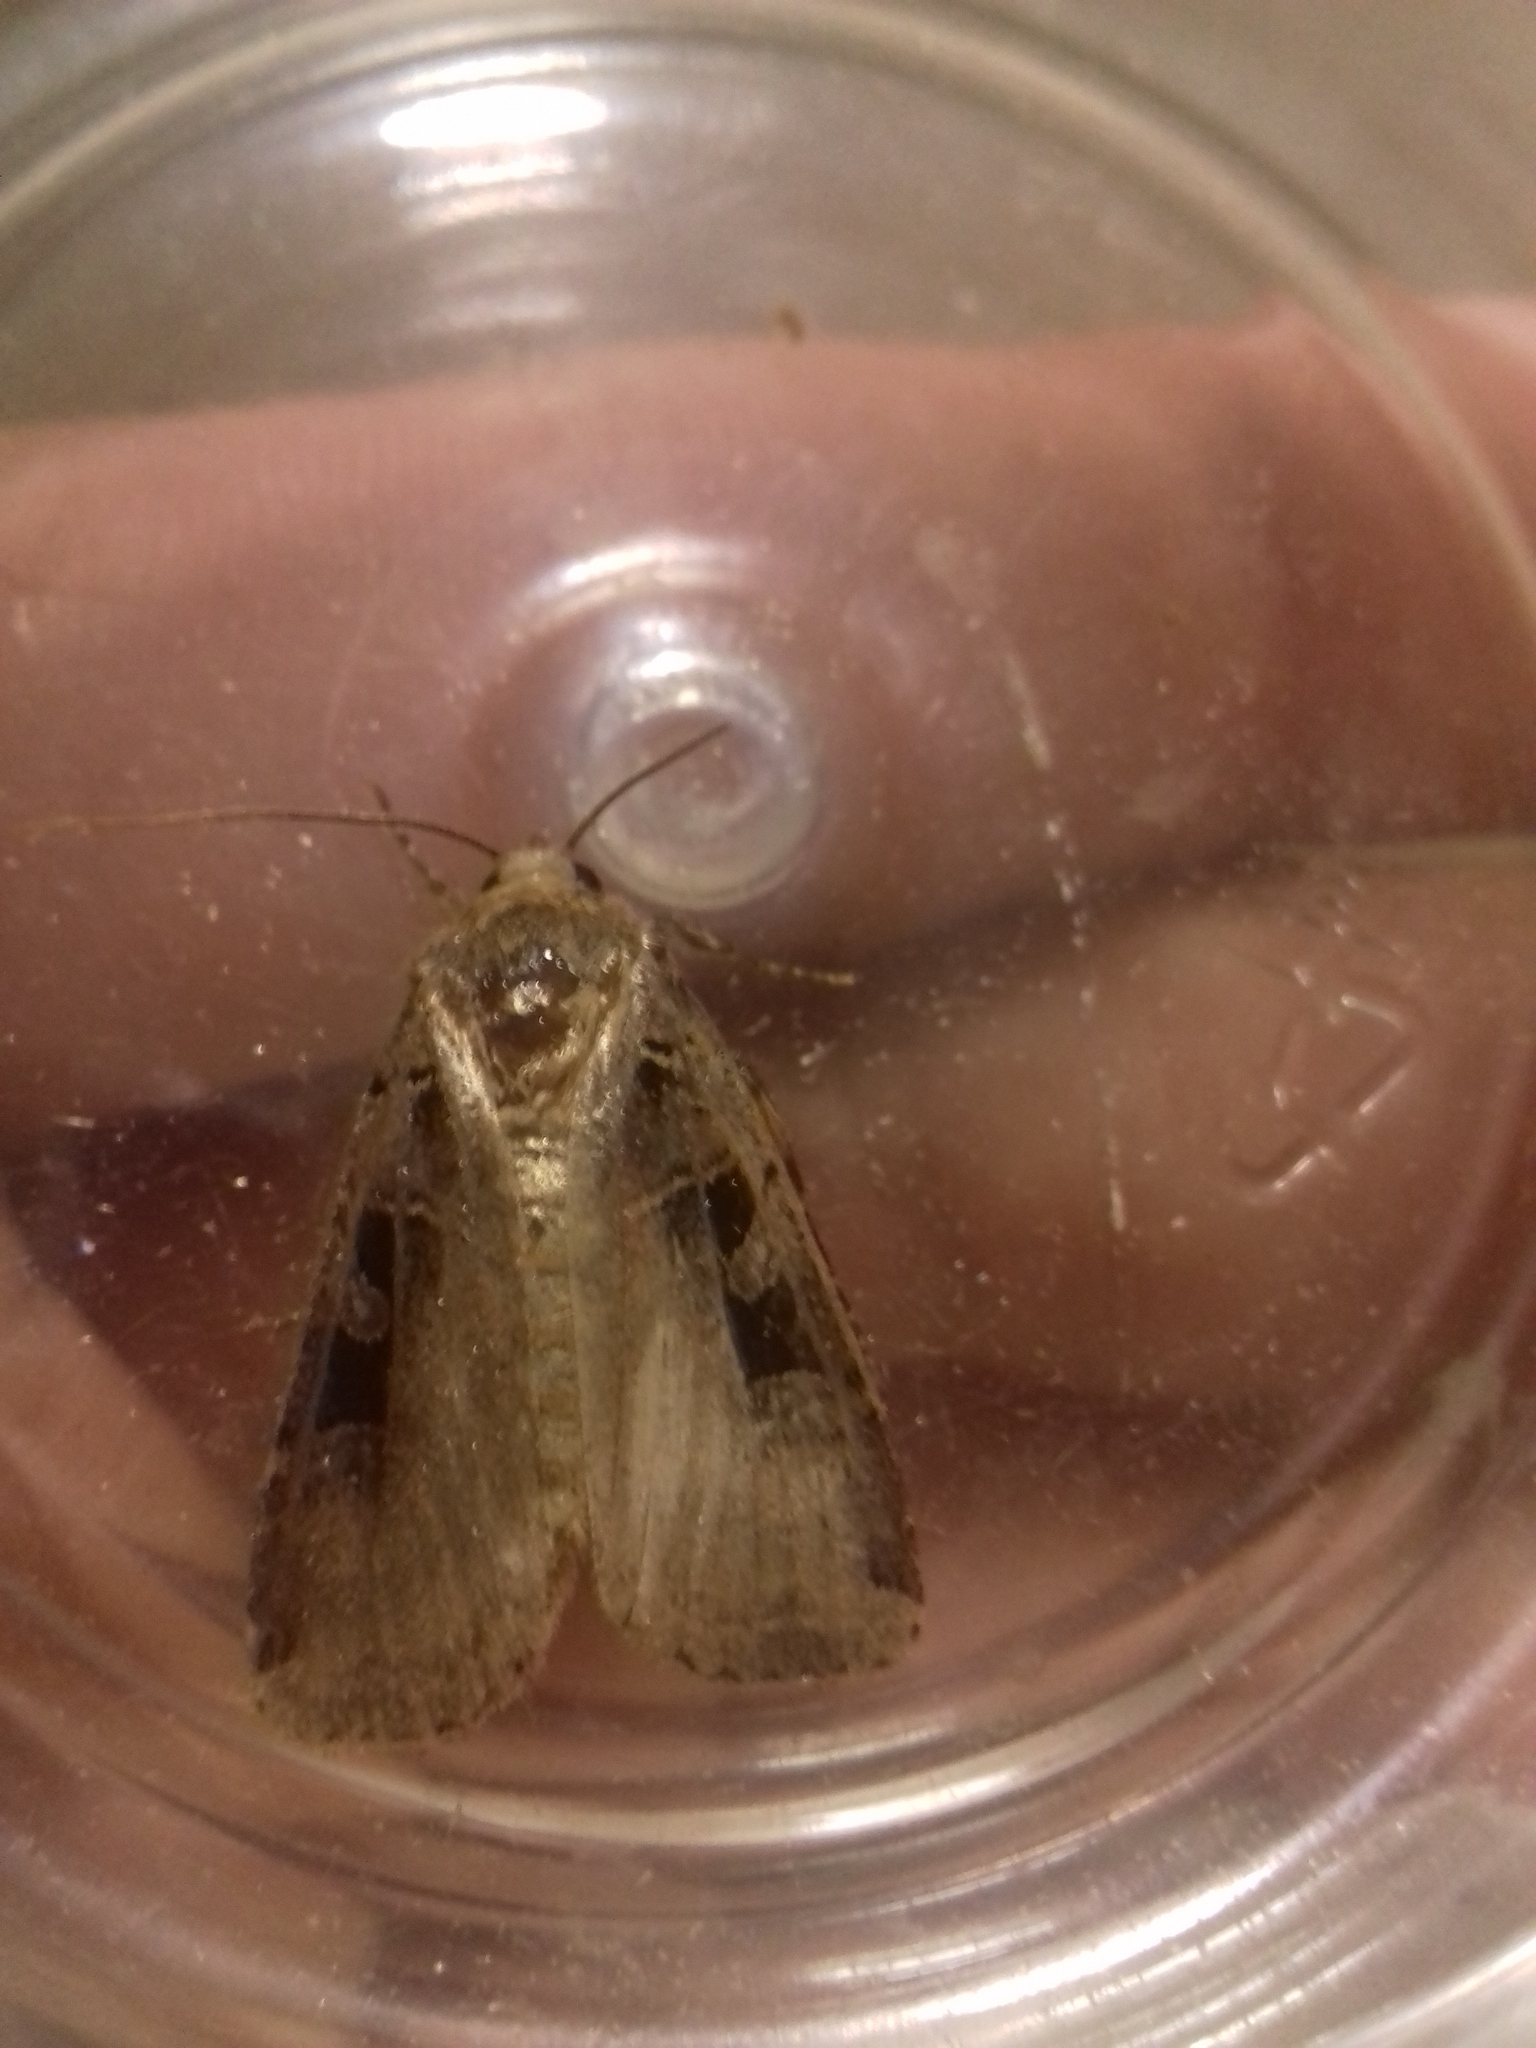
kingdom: Animalia
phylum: Arthropoda
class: Insecta
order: Lepidoptera
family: Noctuidae
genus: Xestia
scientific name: Xestia ditrapezium
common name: Triple-spotted clay
